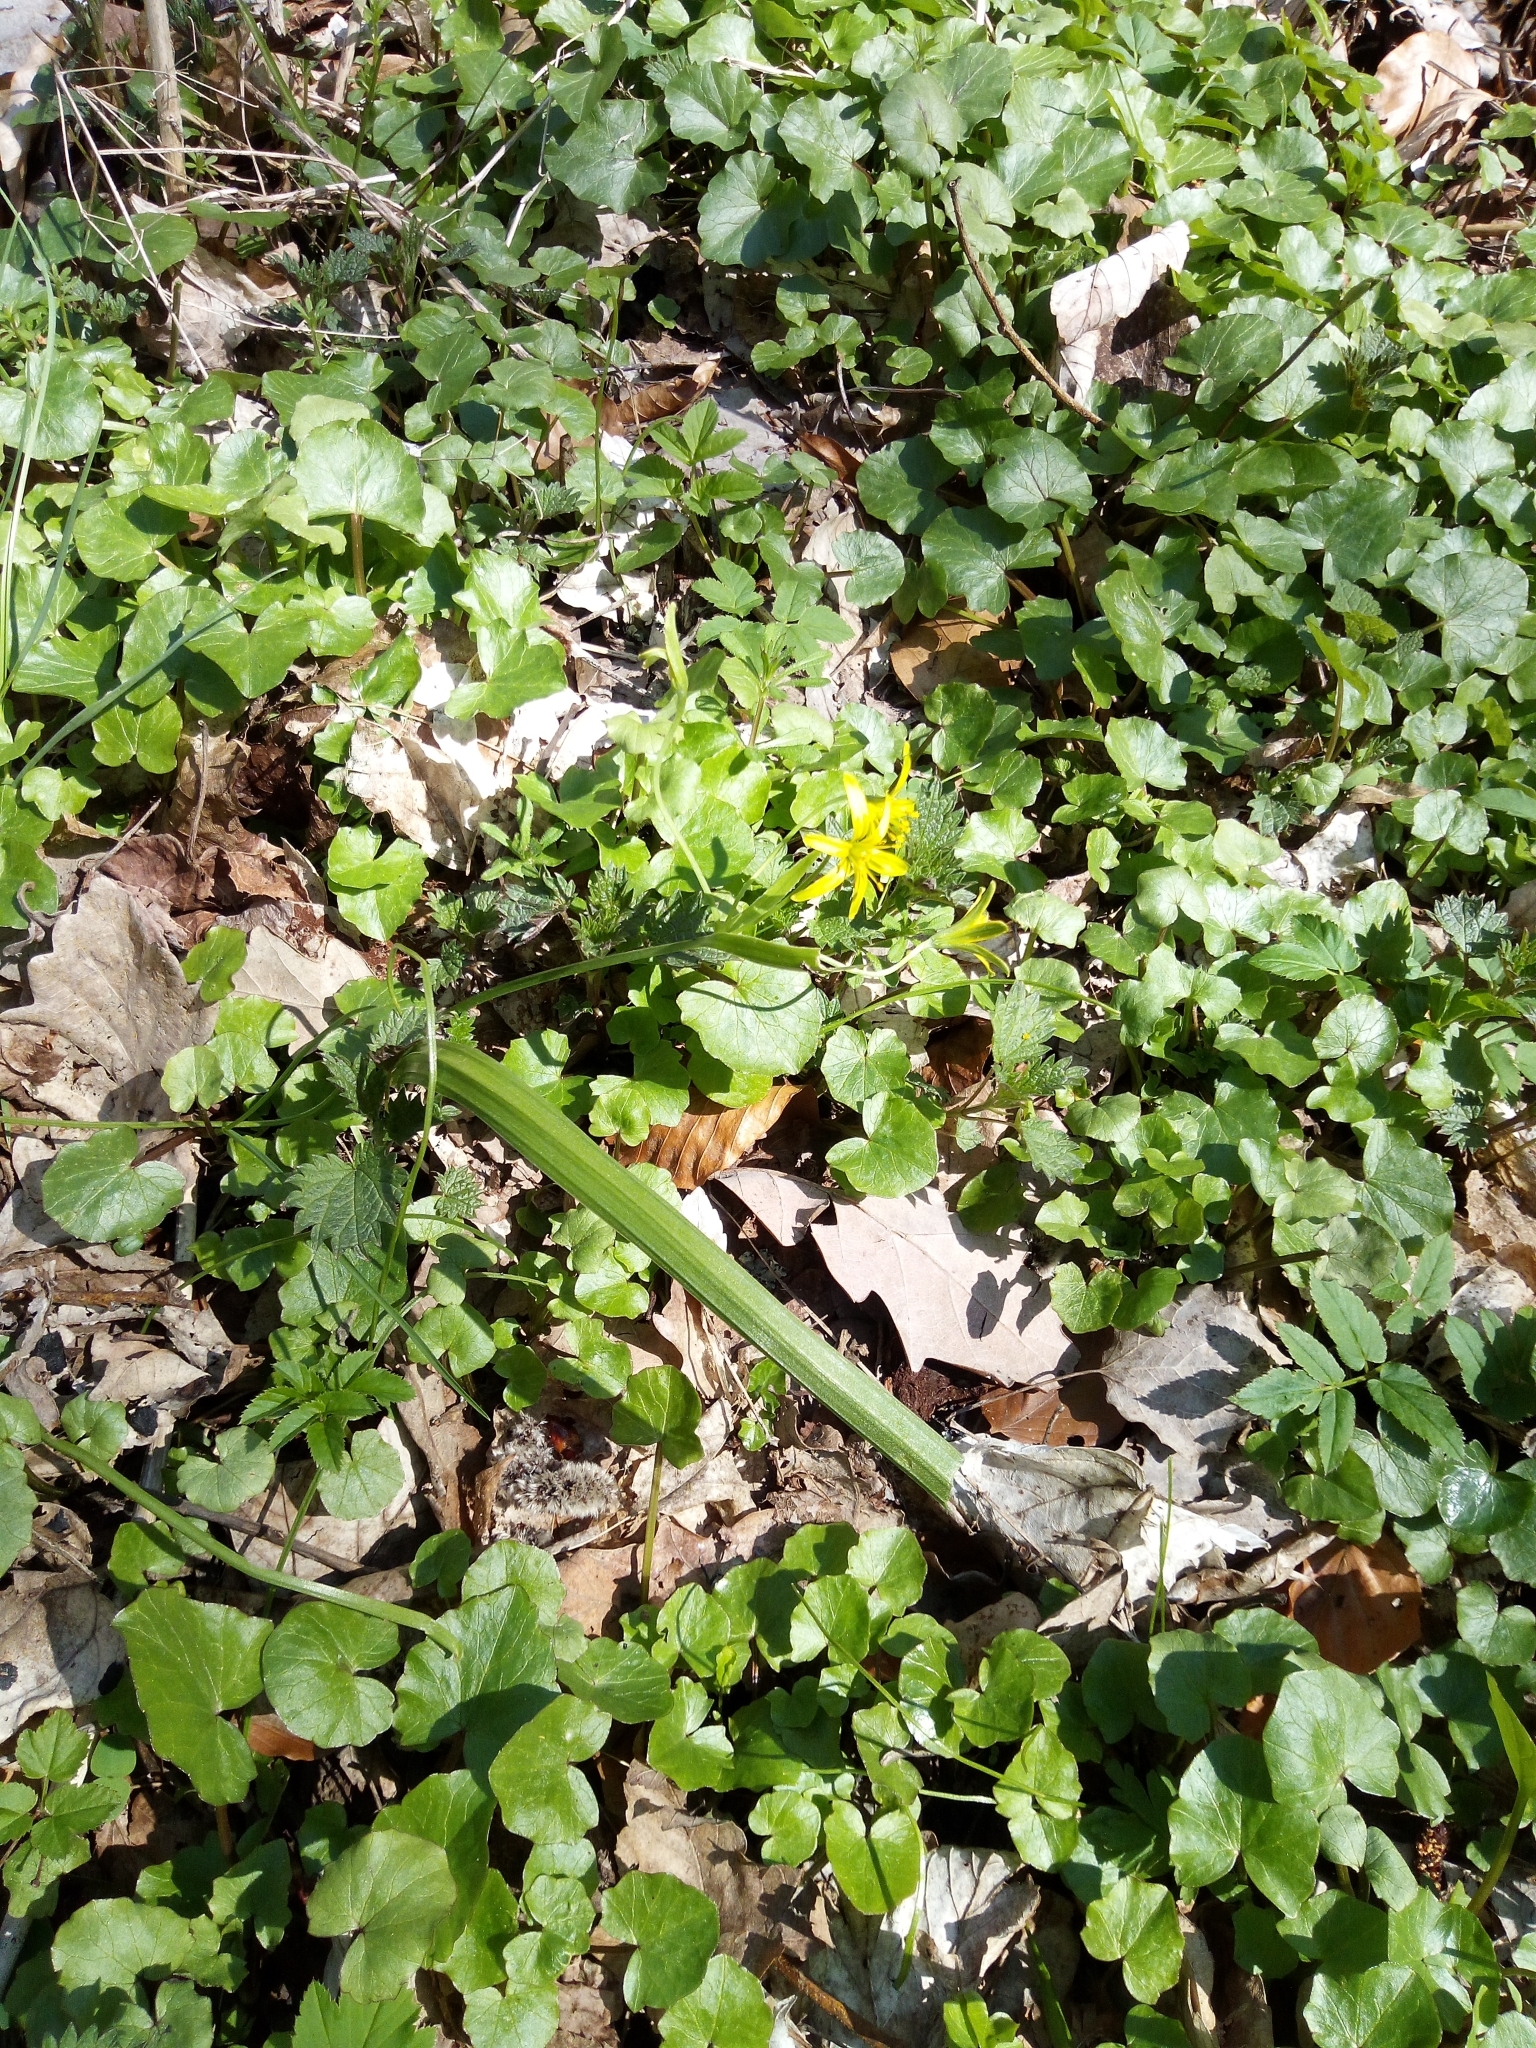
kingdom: Plantae
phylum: Tracheophyta
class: Liliopsida
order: Liliales
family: Liliaceae
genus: Gagea
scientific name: Gagea lutea
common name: Yellow star-of-bethlehem
